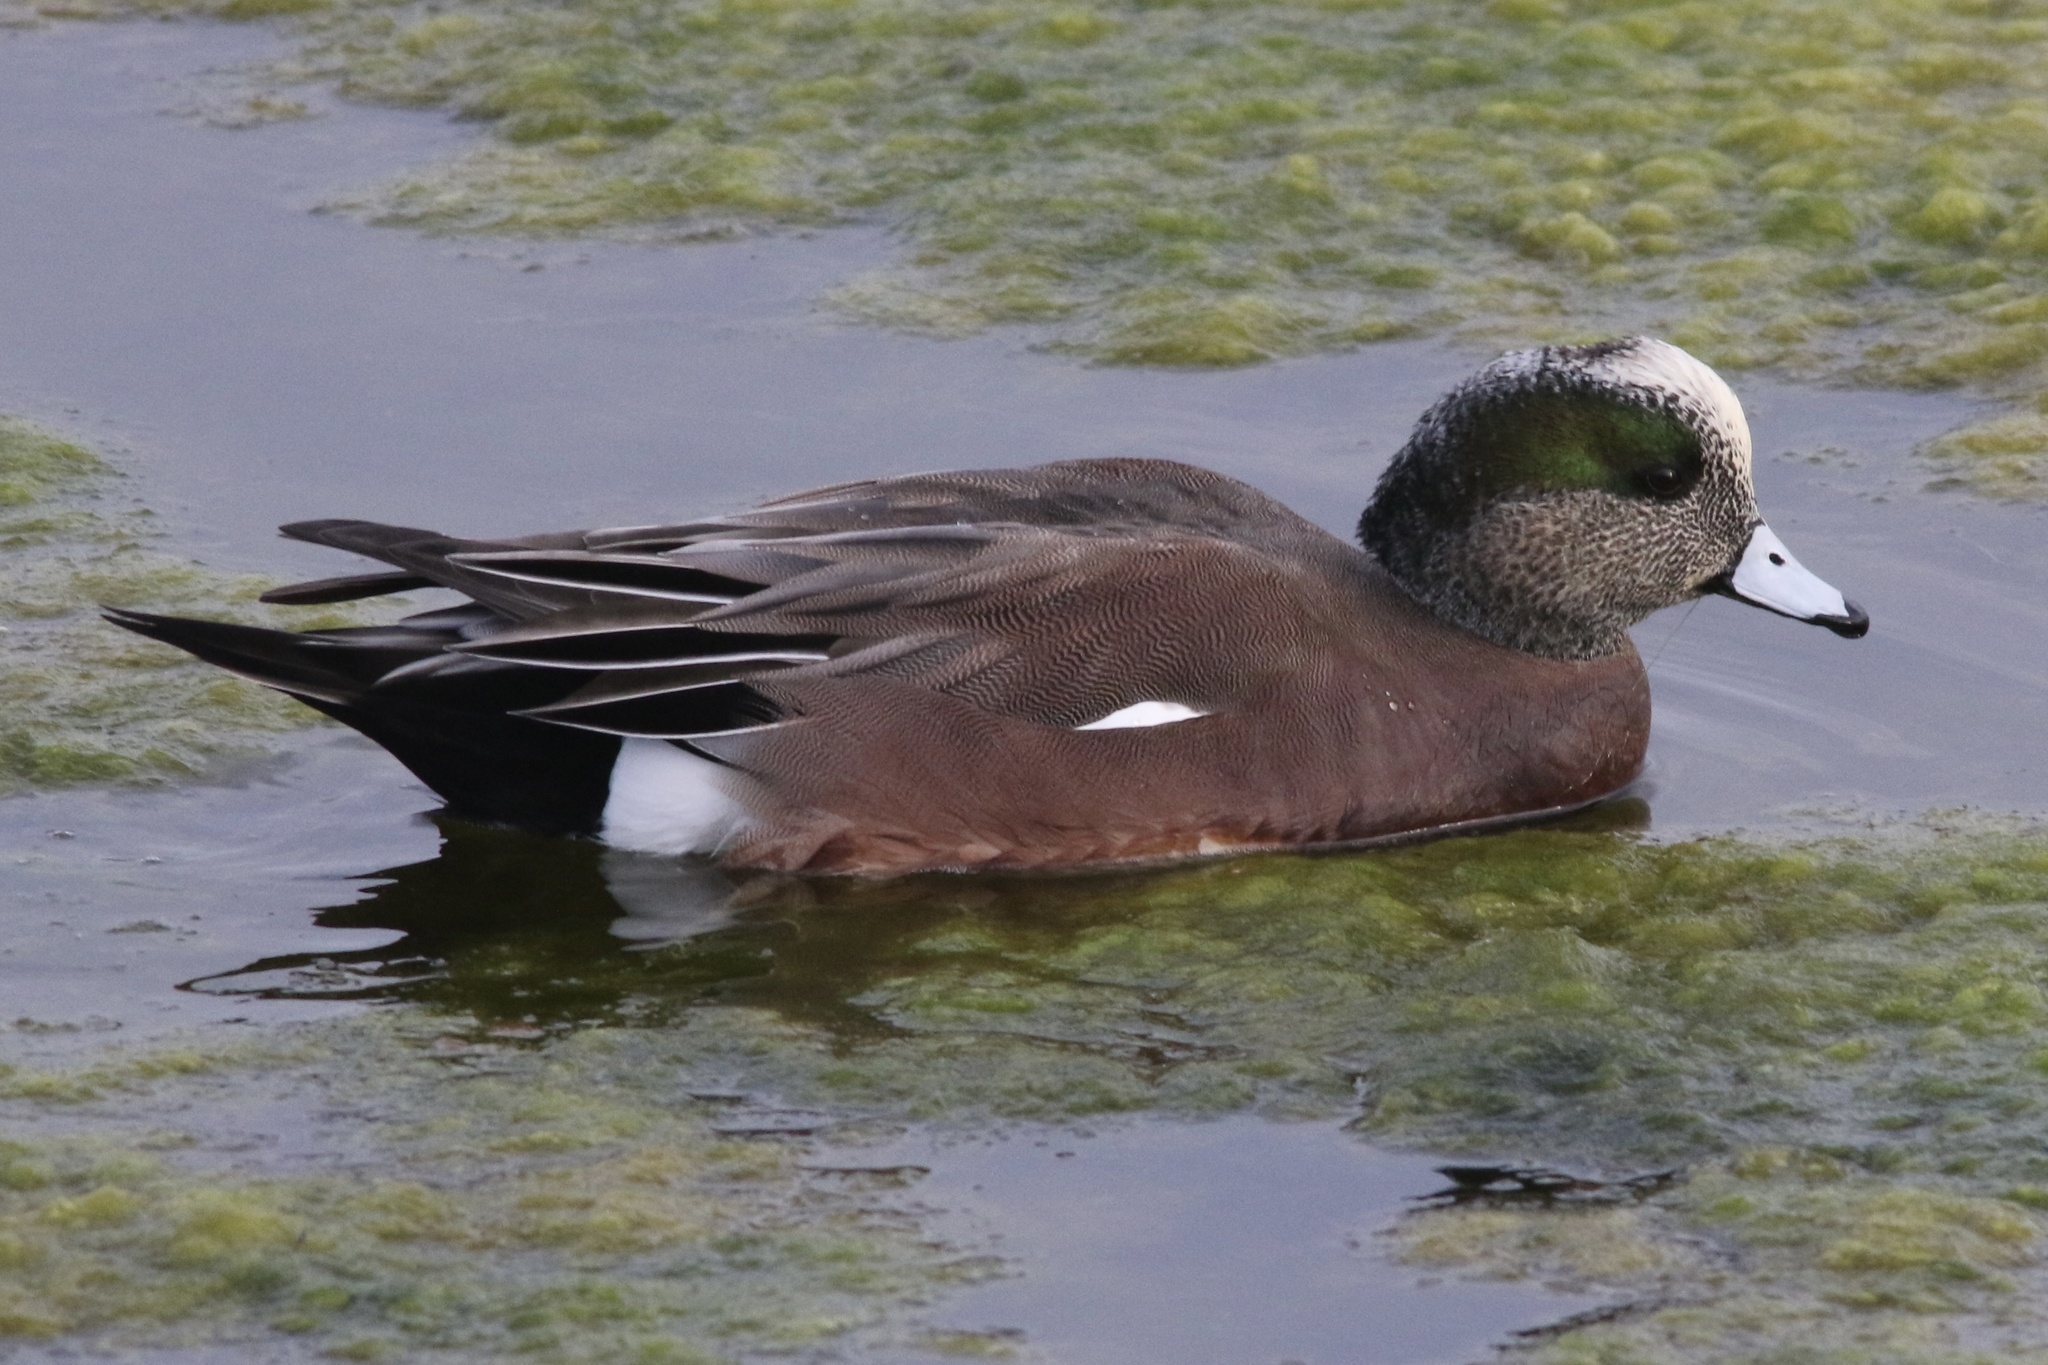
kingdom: Animalia
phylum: Chordata
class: Aves
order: Anseriformes
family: Anatidae
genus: Mareca
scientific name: Mareca americana
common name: American wigeon
